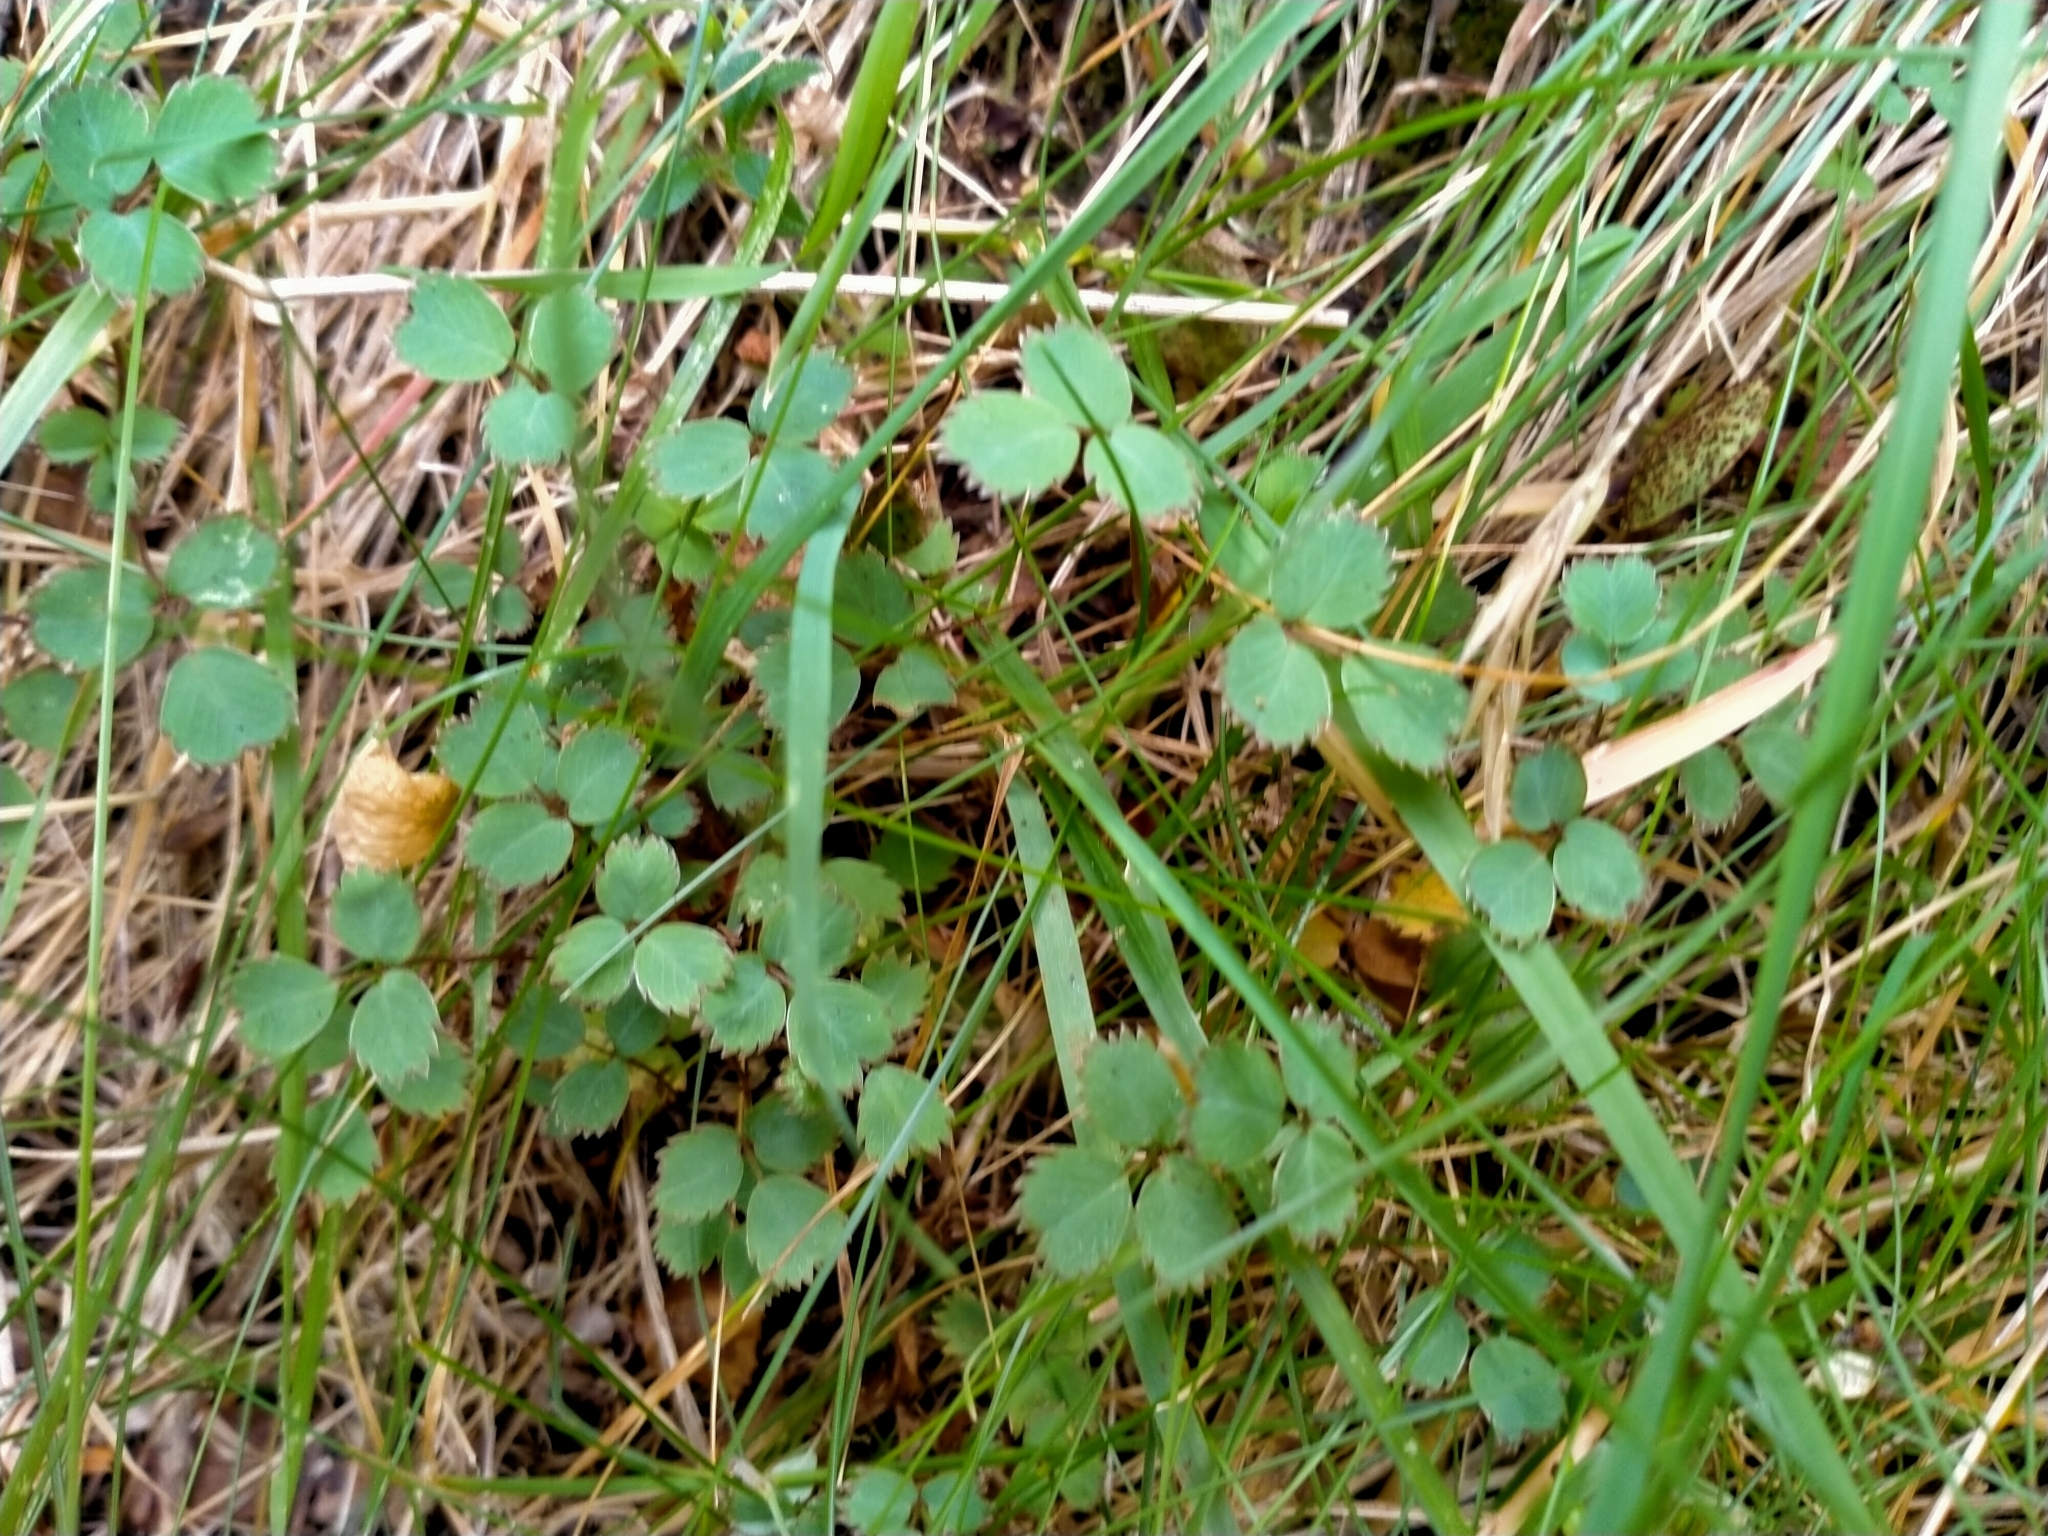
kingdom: Plantae
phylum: Tracheophyta
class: Magnoliopsida
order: Rosales
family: Rosaceae
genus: Acaena
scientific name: Acaena dumicola
